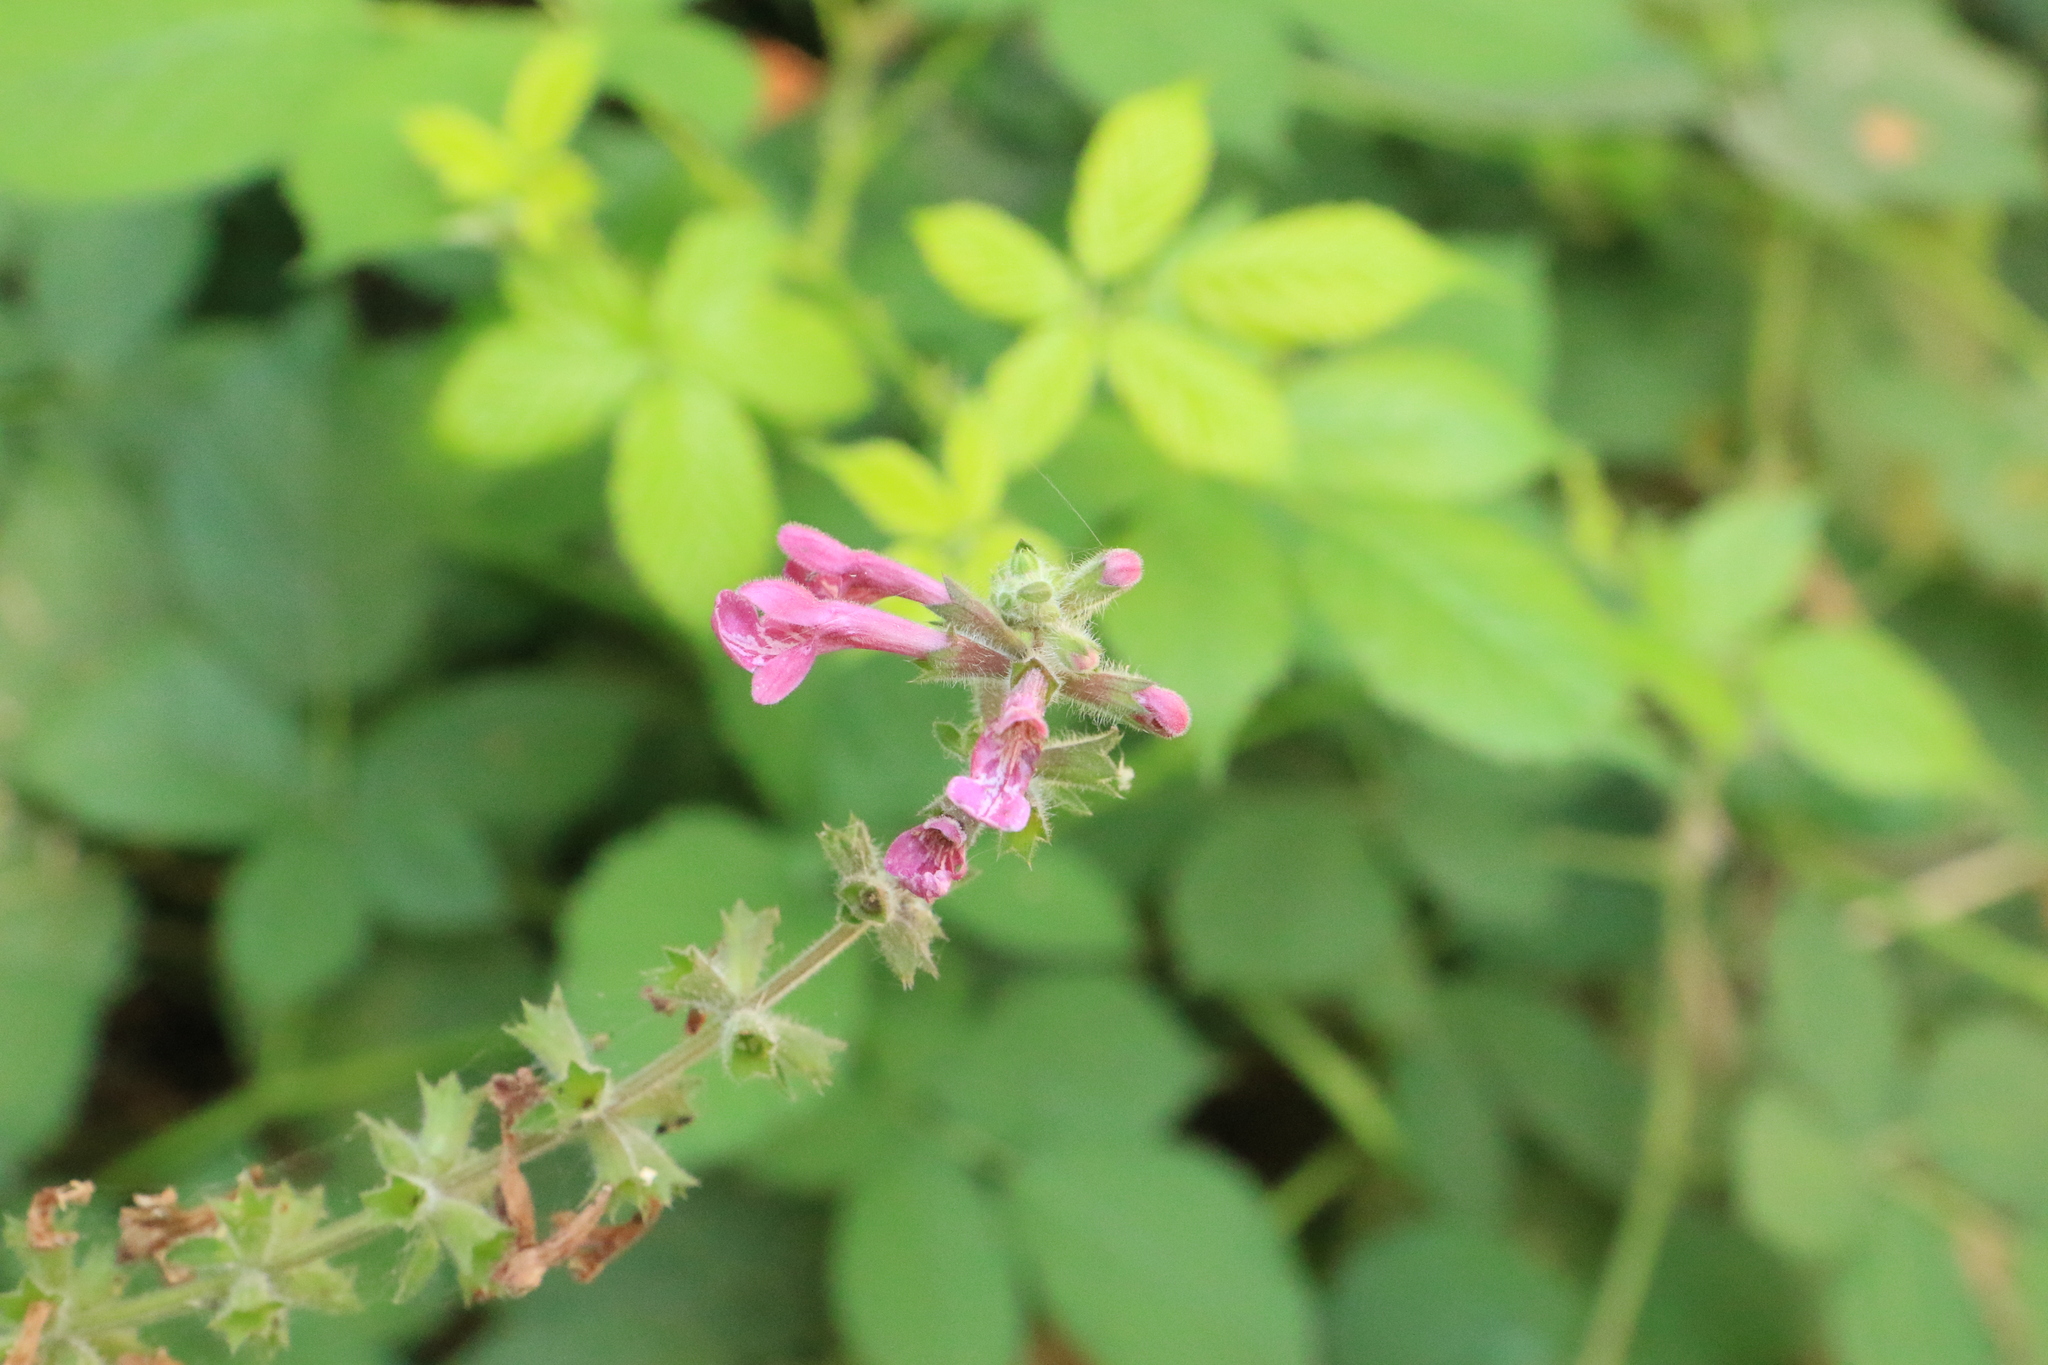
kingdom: Plantae
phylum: Tracheophyta
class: Magnoliopsida
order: Lamiales
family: Lamiaceae
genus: Stachys
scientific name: Stachys chamissonis
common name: Coastal hedge-nettle
